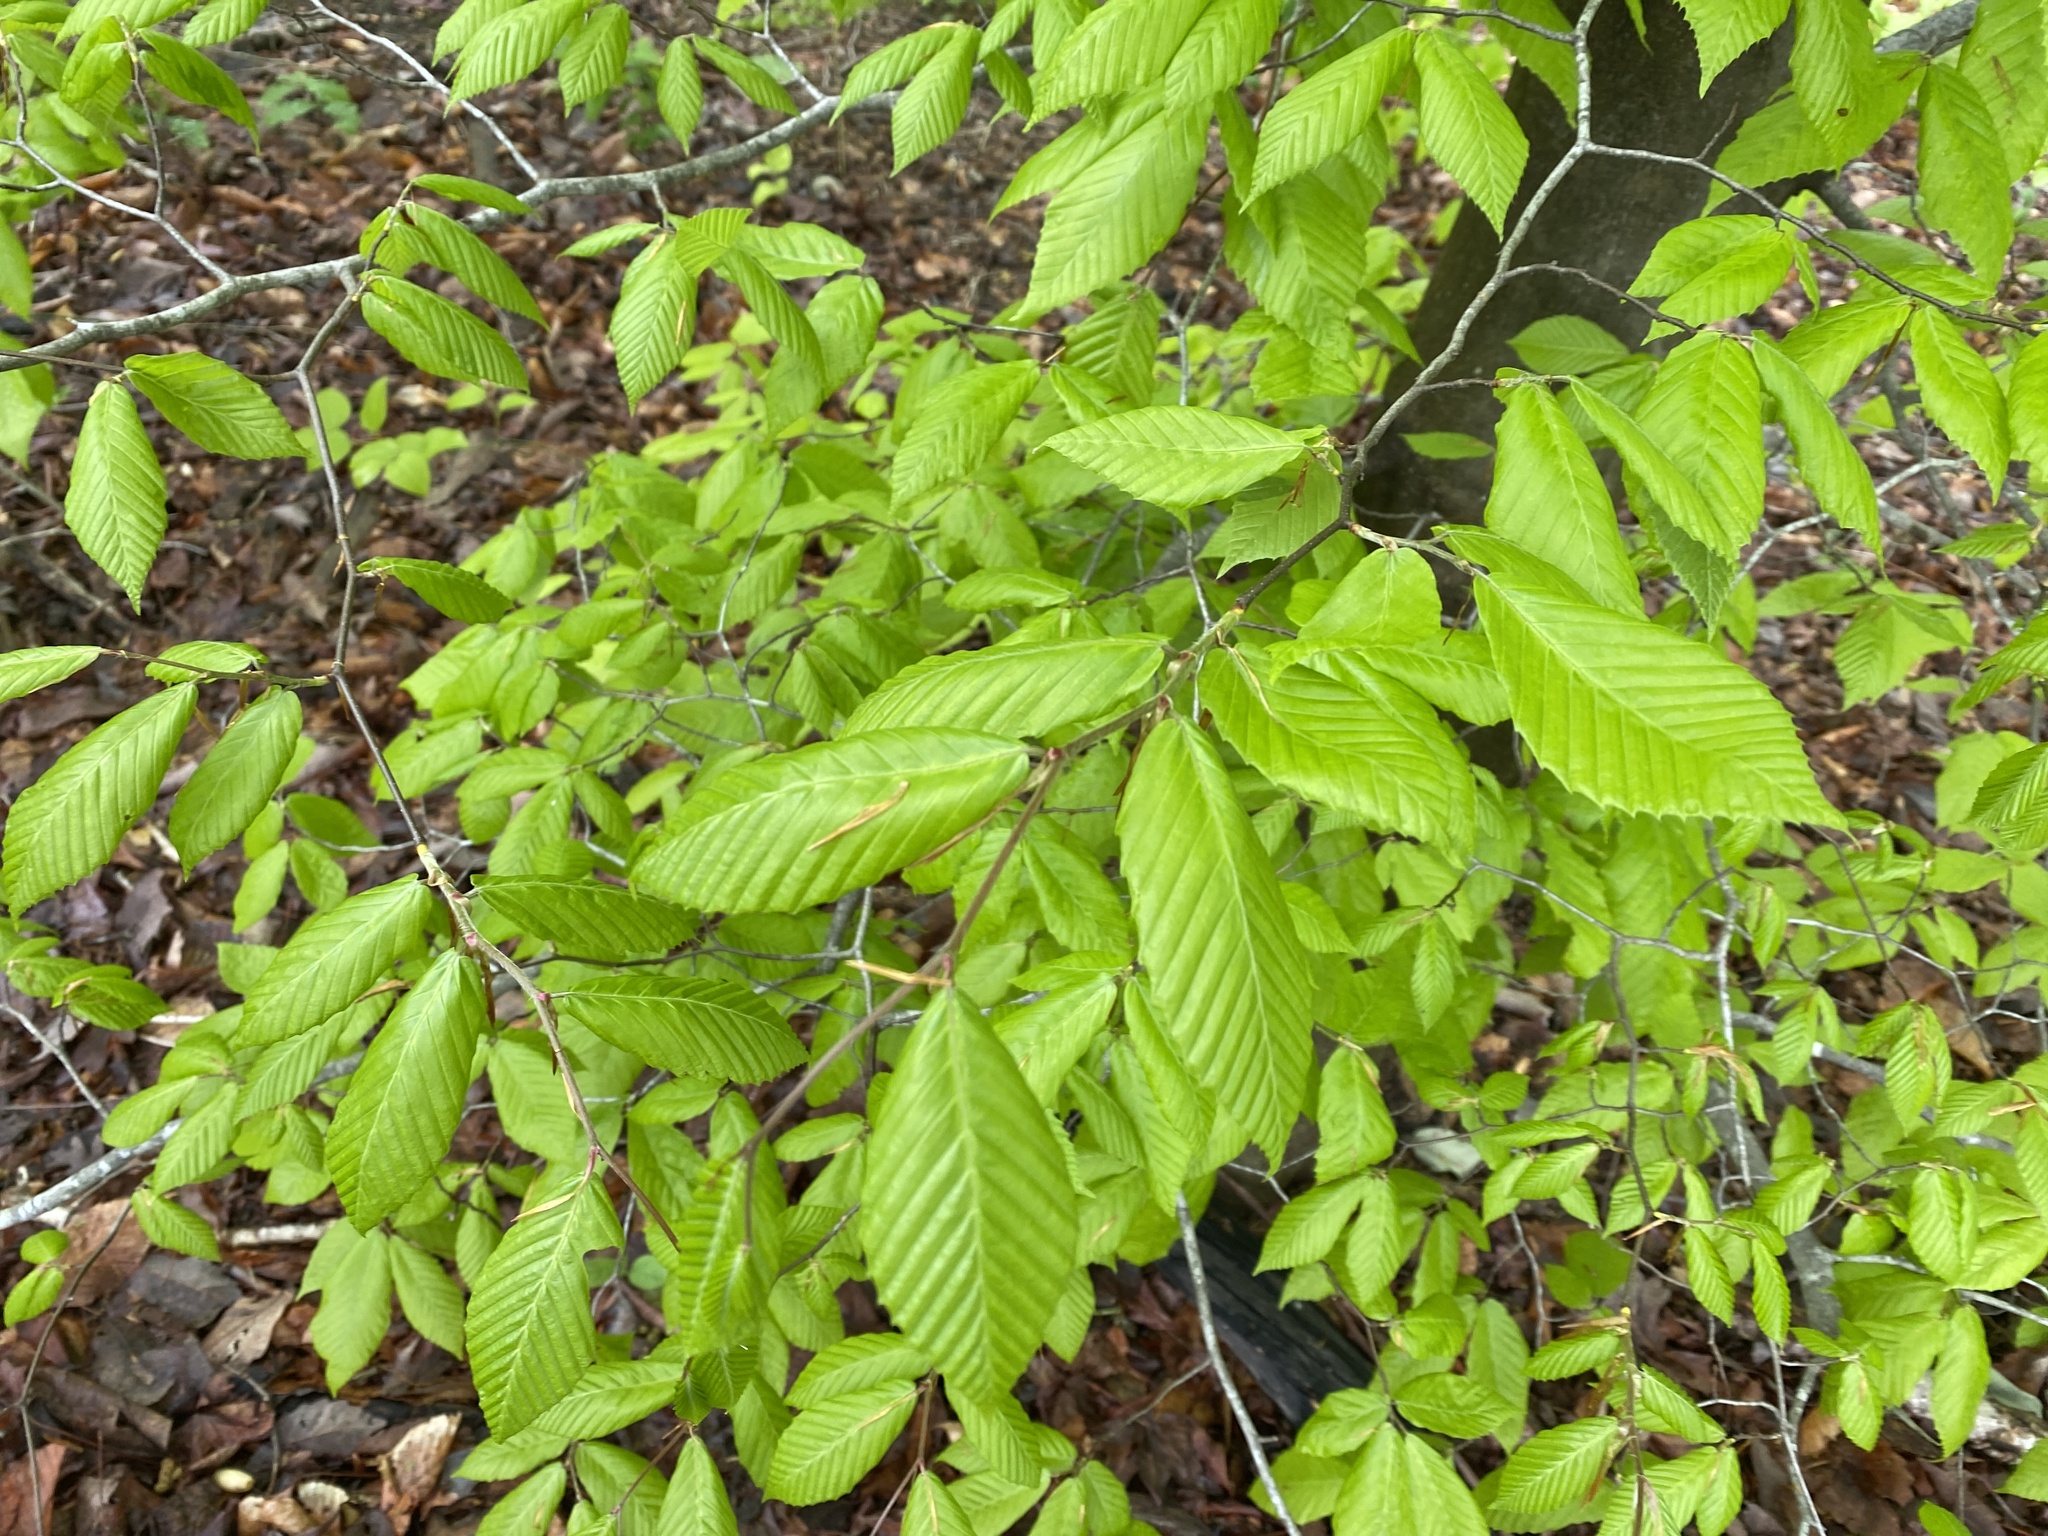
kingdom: Plantae
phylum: Tracheophyta
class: Magnoliopsida
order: Fagales
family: Fagaceae
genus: Fagus
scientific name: Fagus grandifolia
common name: American beech
